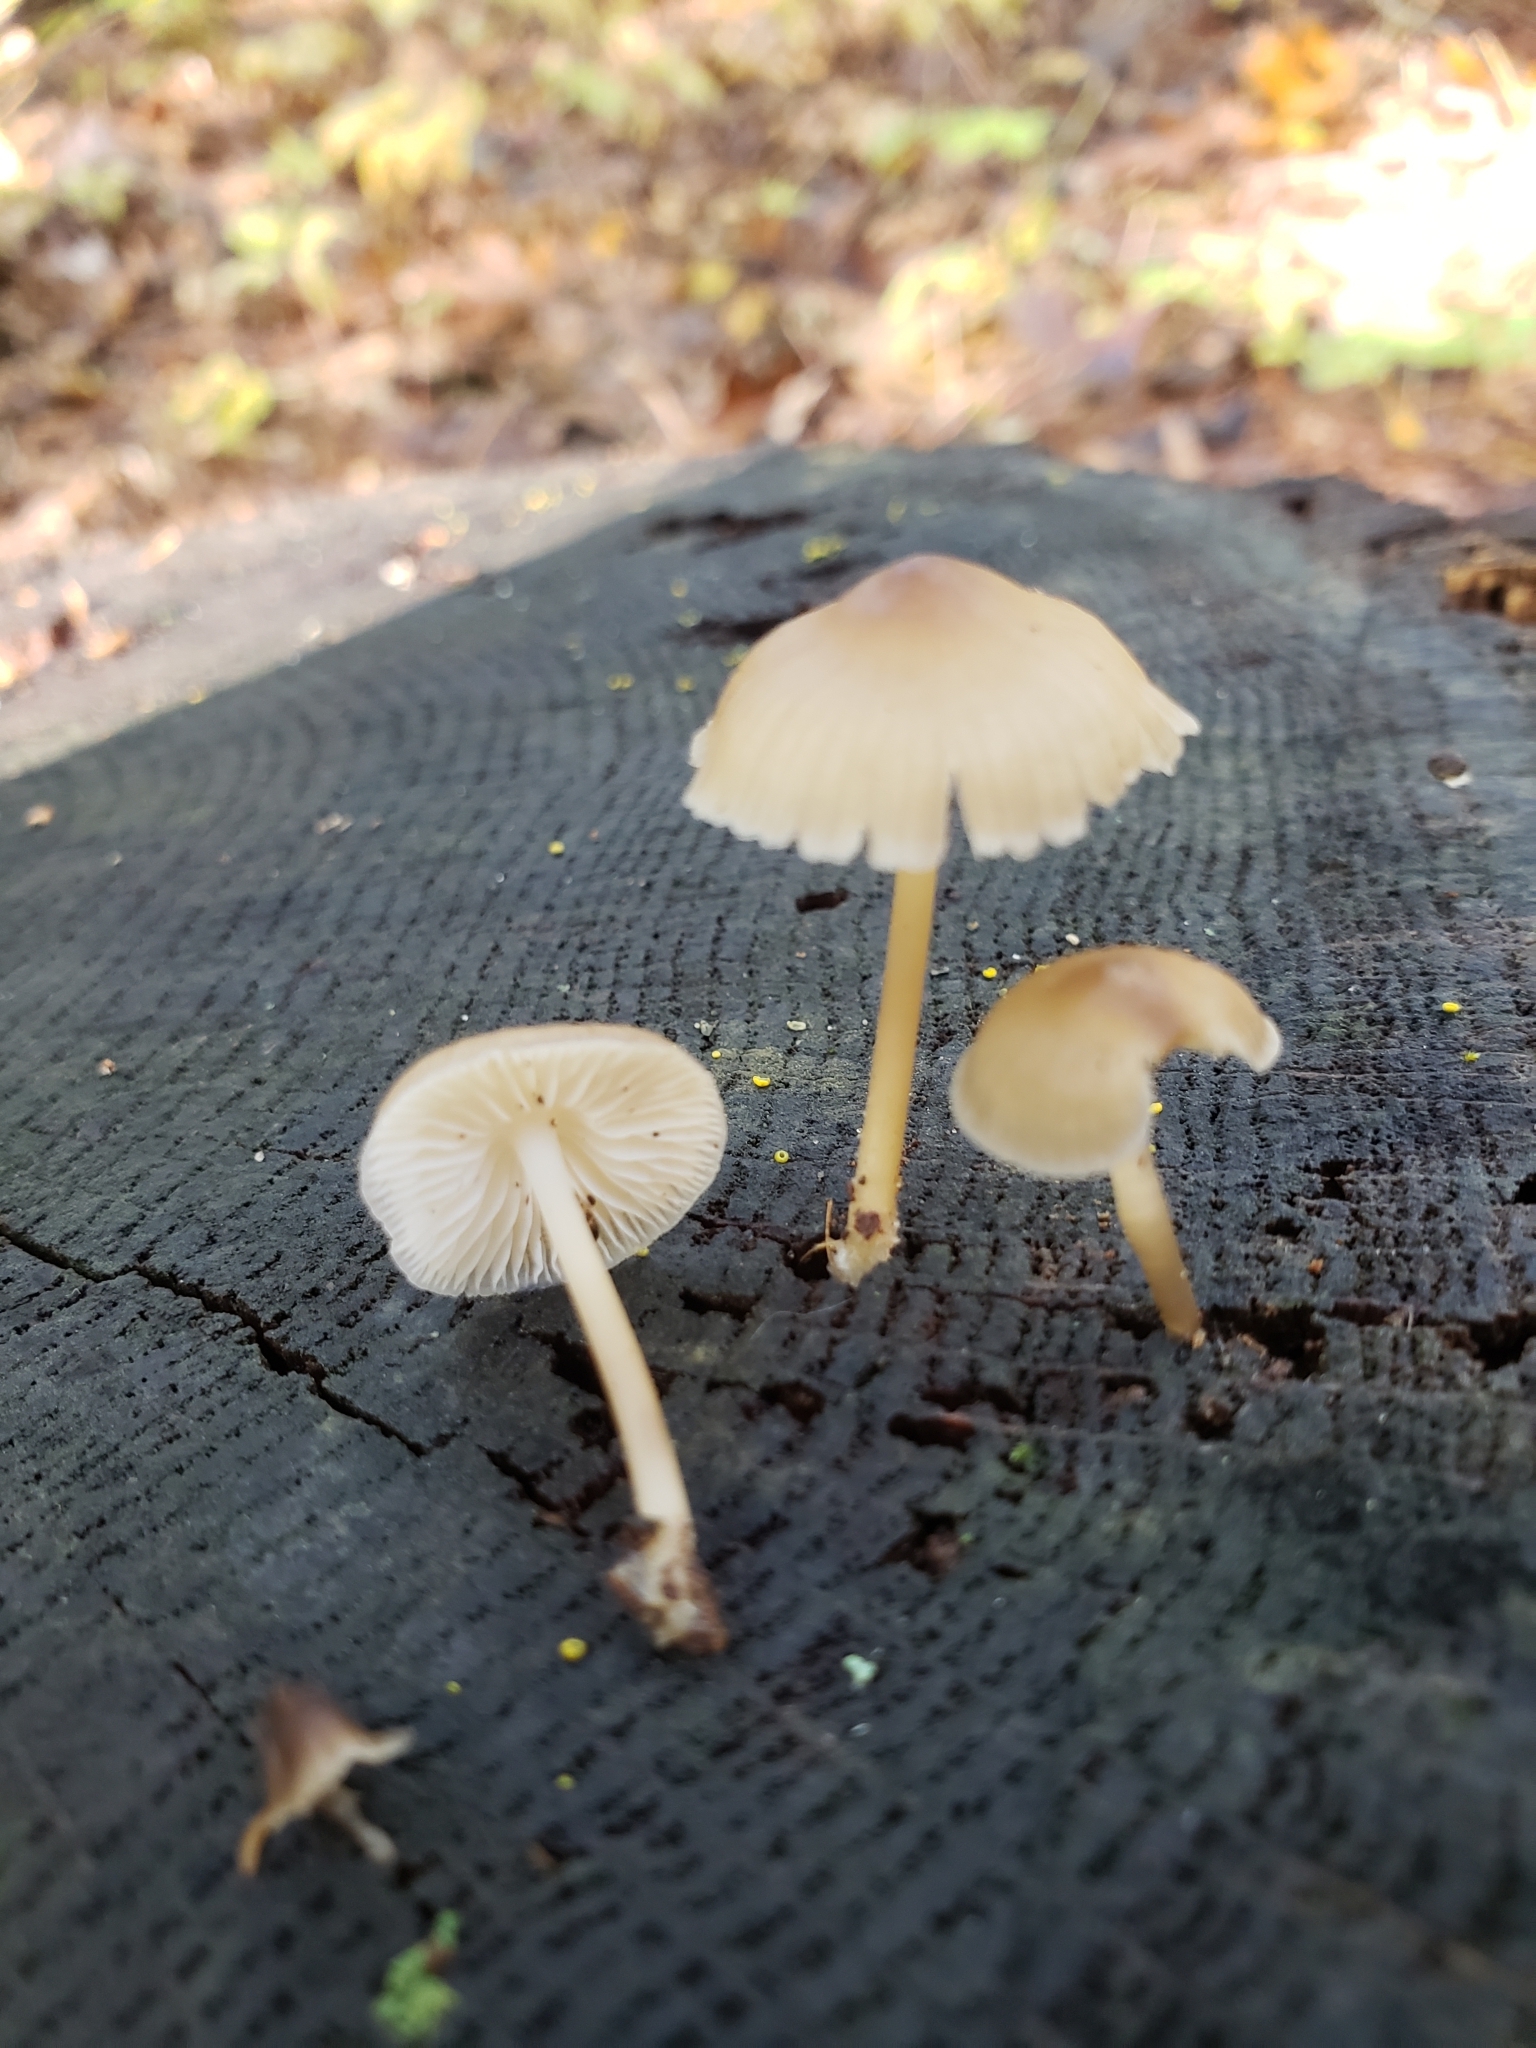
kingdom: Fungi
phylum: Basidiomycota
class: Agaricomycetes
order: Agaricales
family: Mycenaceae
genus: Mycena
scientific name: Mycena galericulata
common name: Bonnet mycena
